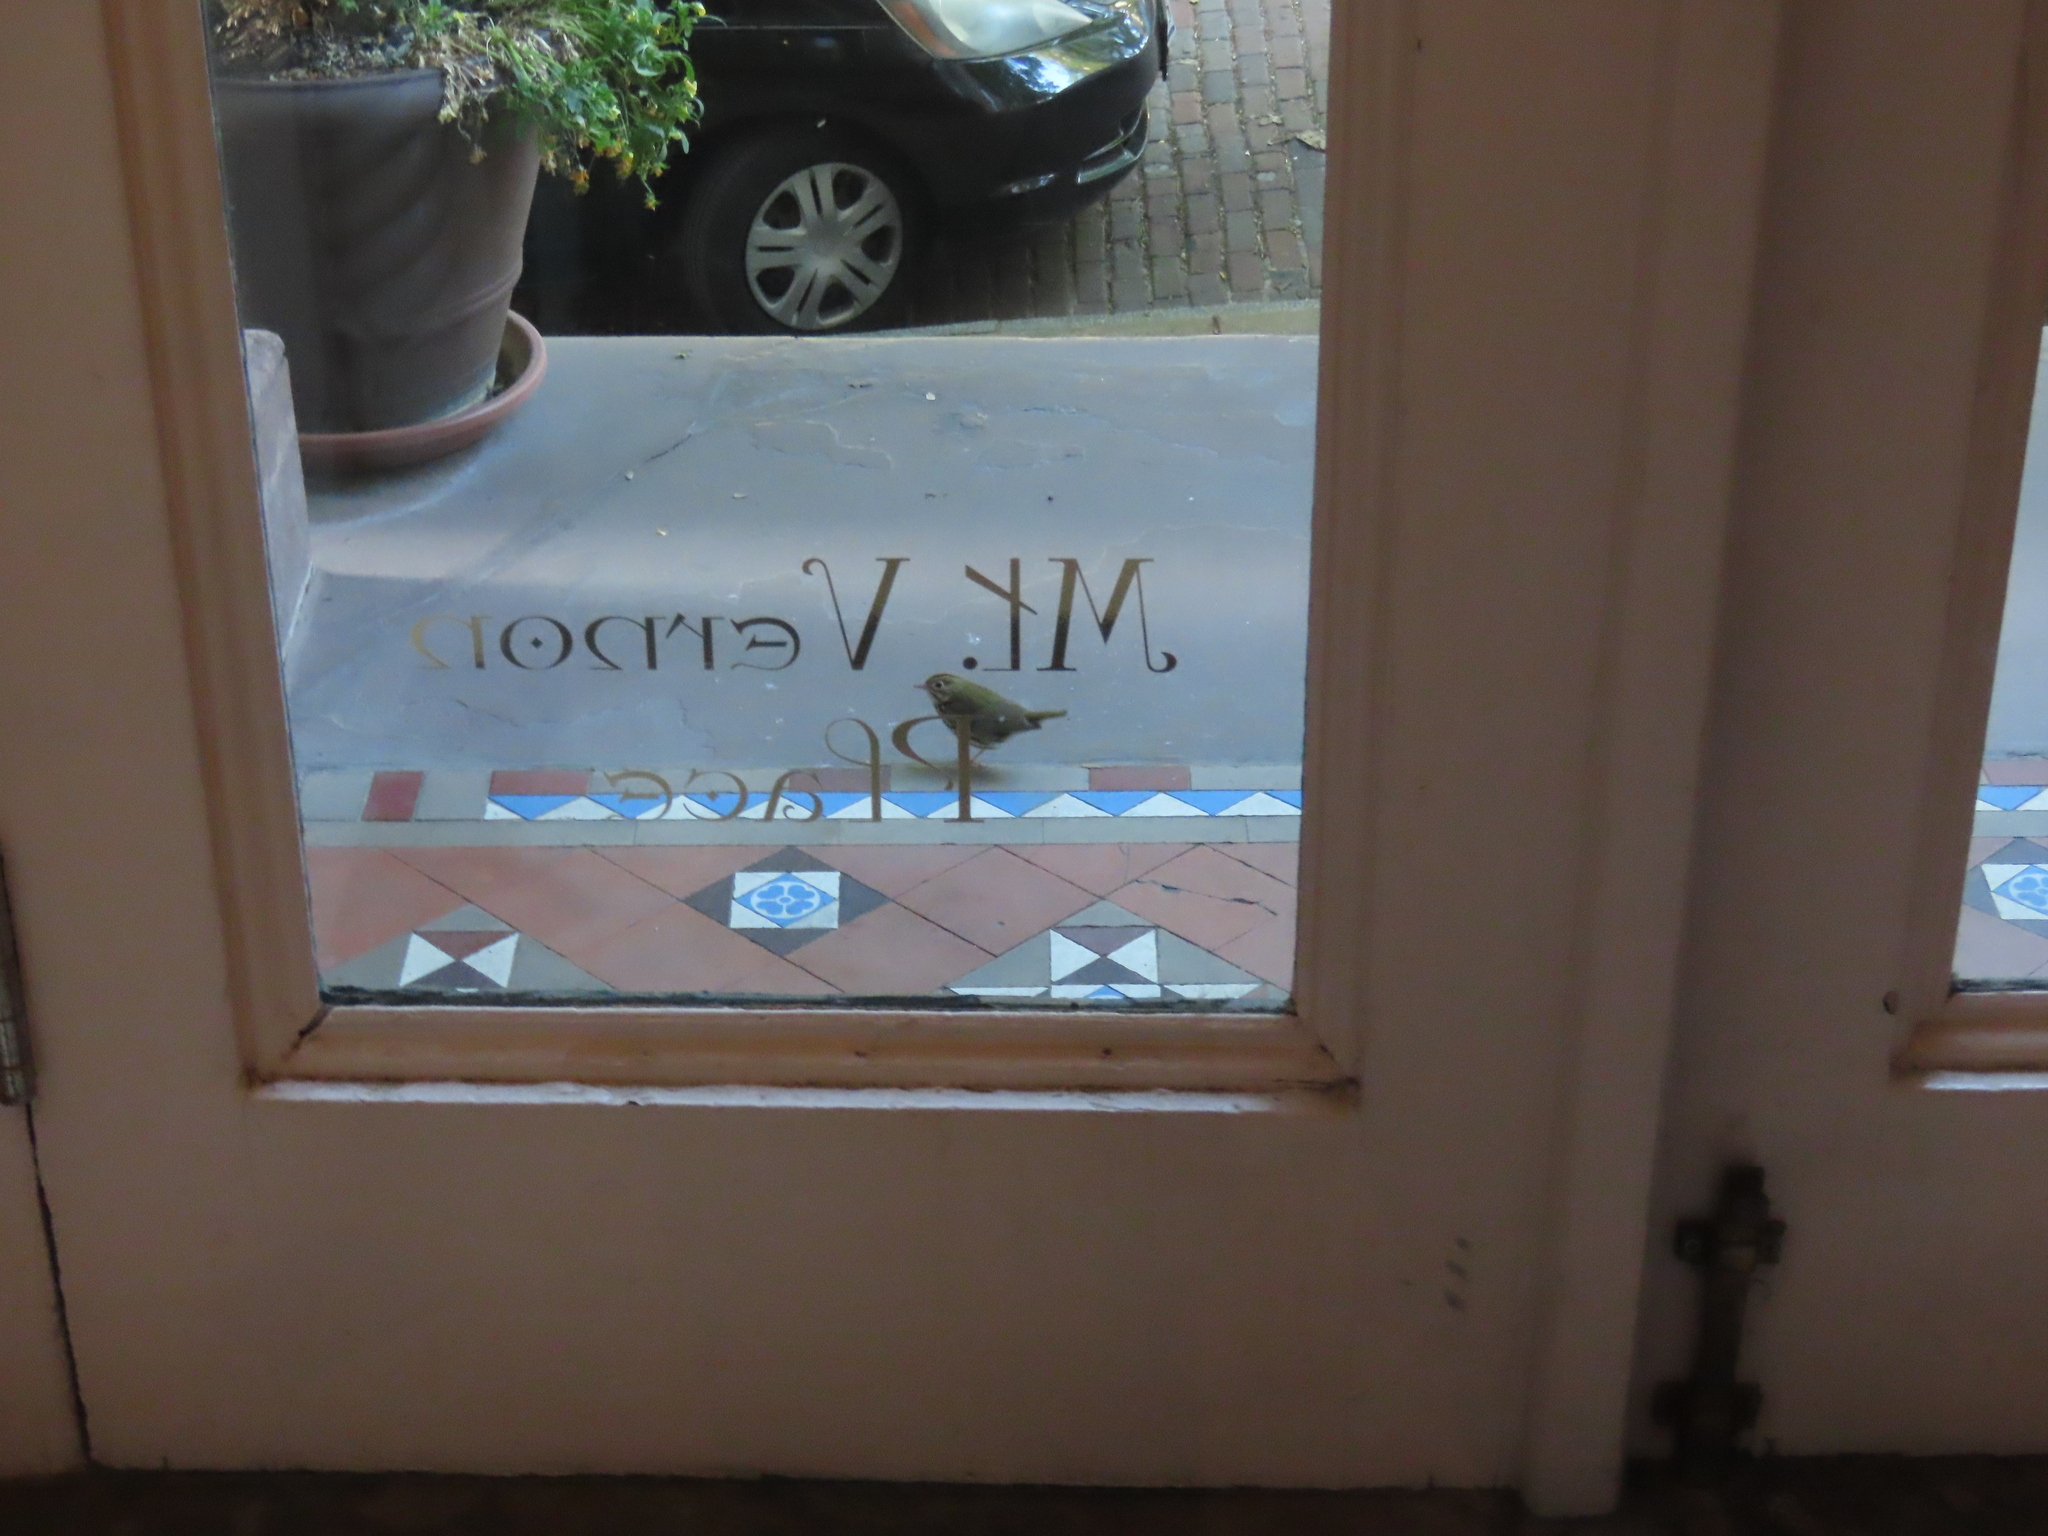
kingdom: Animalia
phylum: Chordata
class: Aves
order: Passeriformes
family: Parulidae
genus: Seiurus
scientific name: Seiurus aurocapilla
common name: Ovenbird
